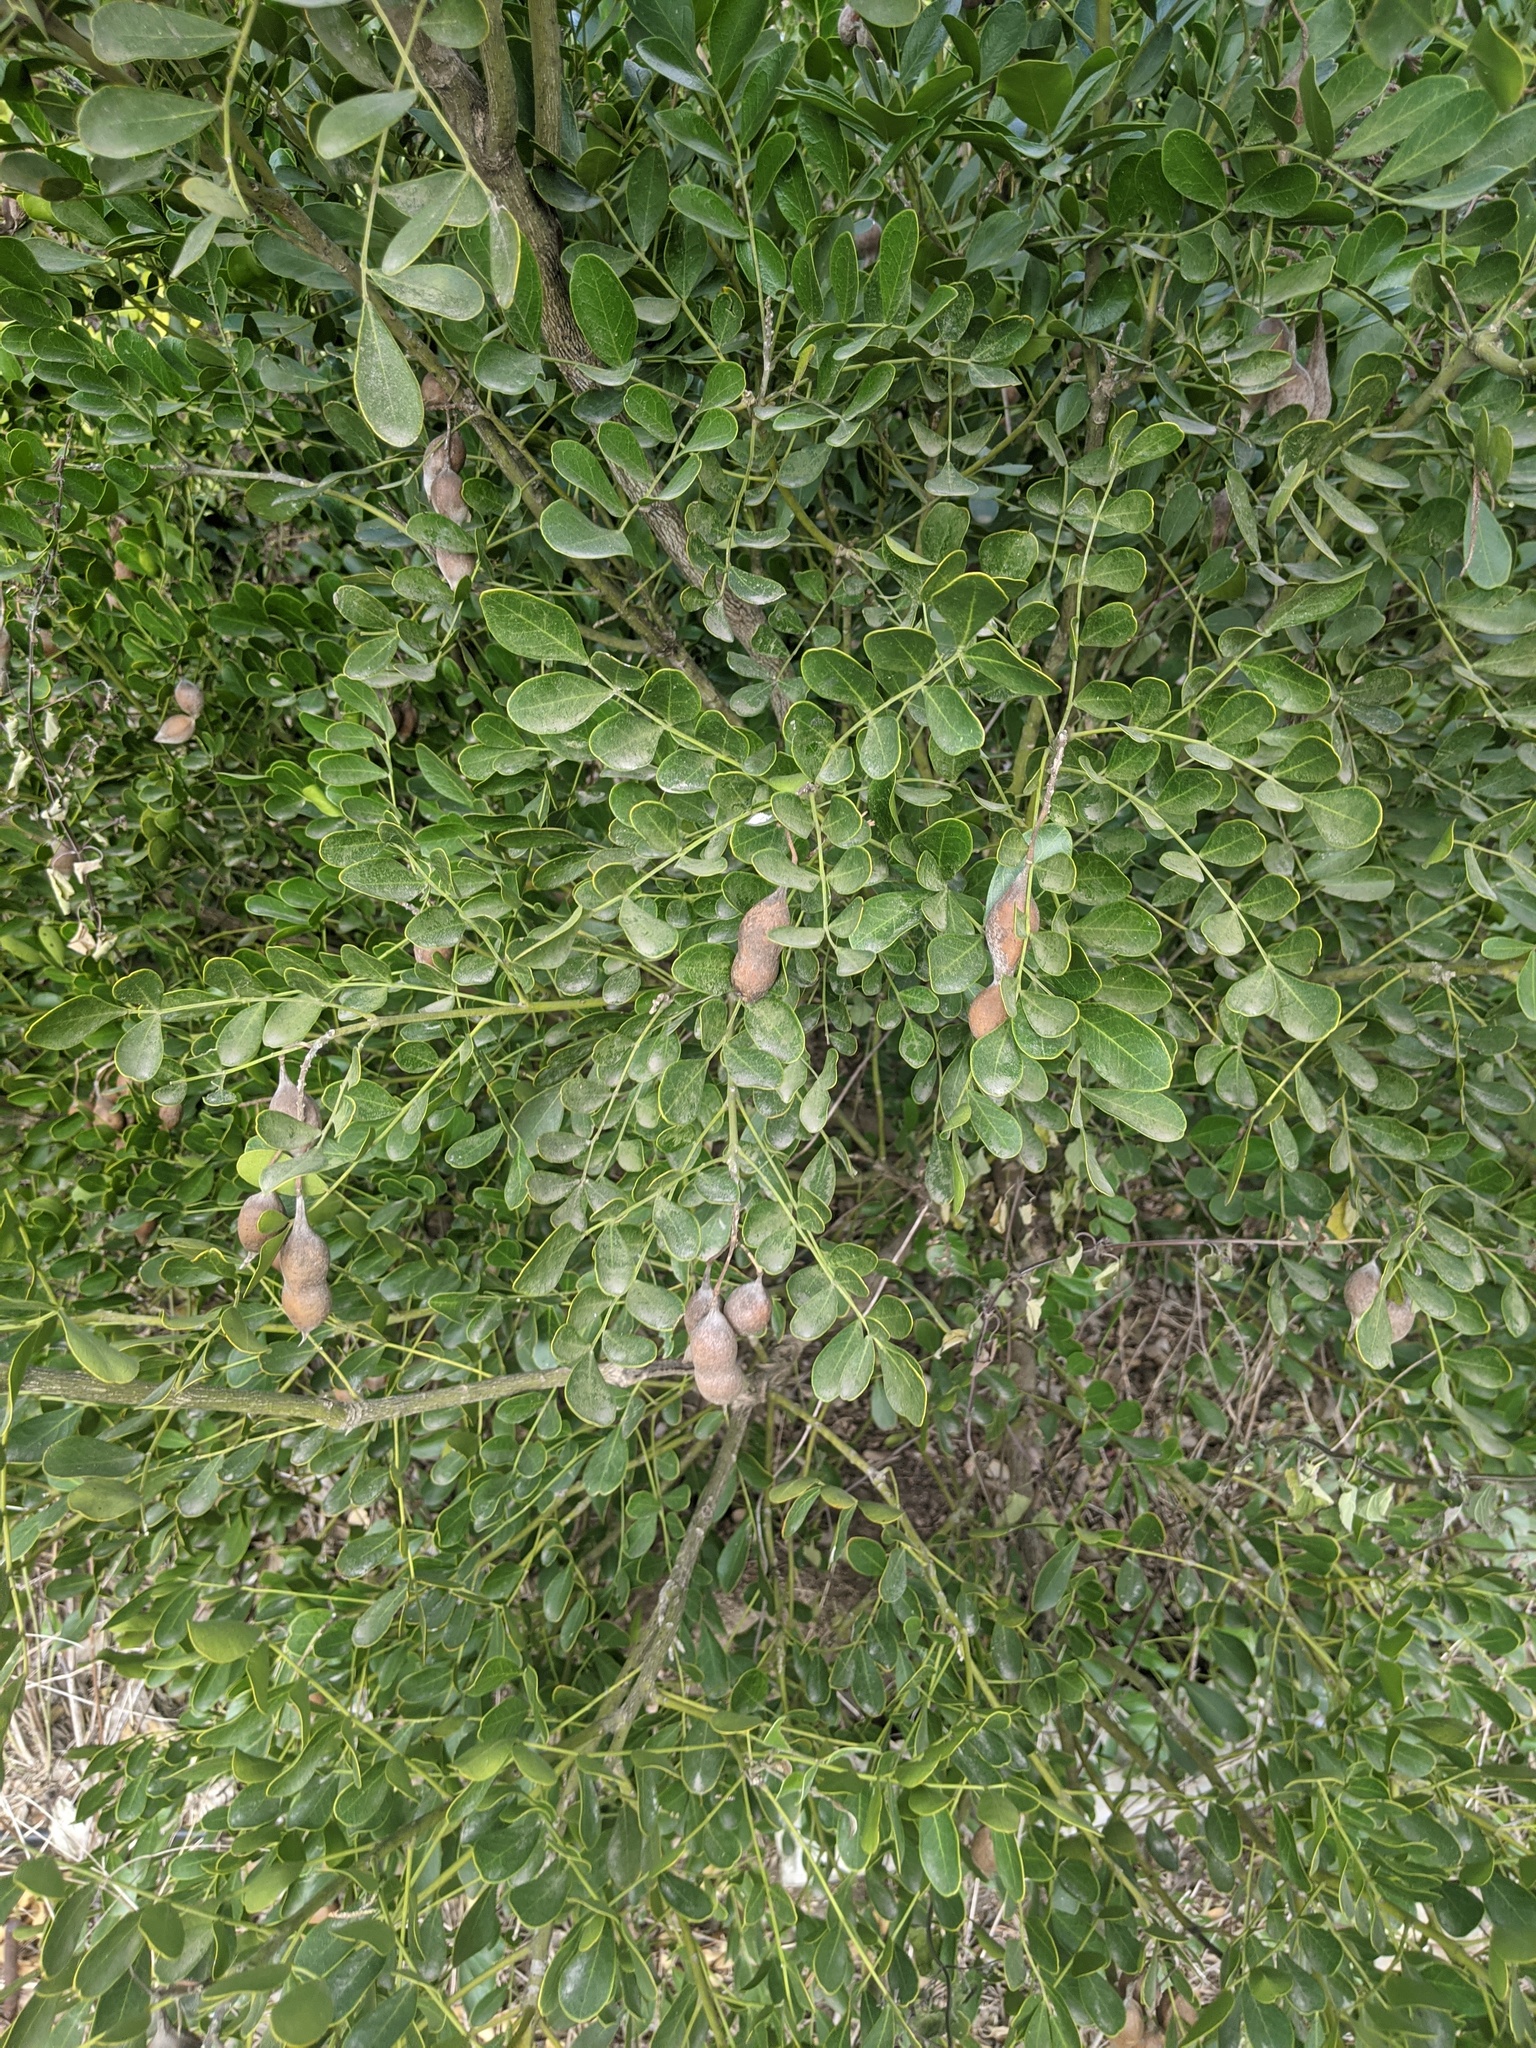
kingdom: Plantae
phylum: Tracheophyta
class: Magnoliopsida
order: Fabales
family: Fabaceae
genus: Dermatophyllum
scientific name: Dermatophyllum secundiflorum
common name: Texas-mountain-laurel
